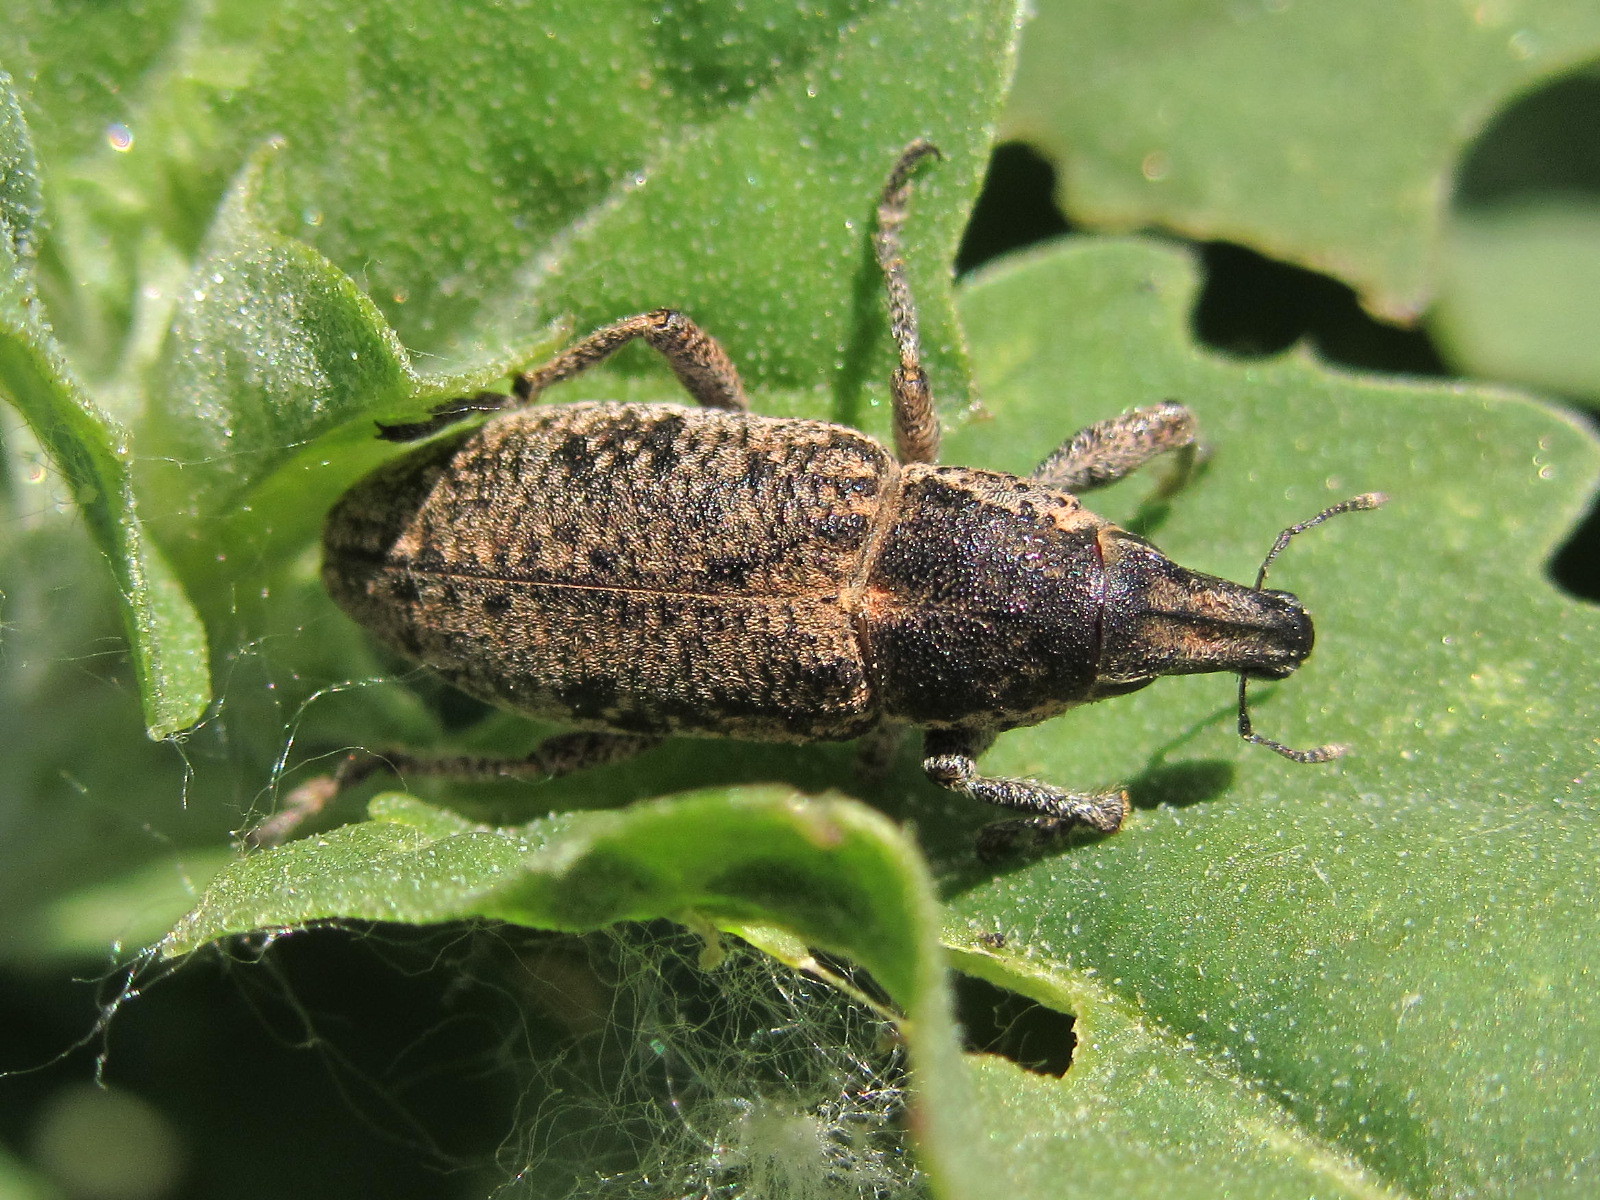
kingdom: Animalia
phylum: Arthropoda
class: Insecta
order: Coleoptera
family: Curculionidae
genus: Maximus
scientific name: Maximus strabus
